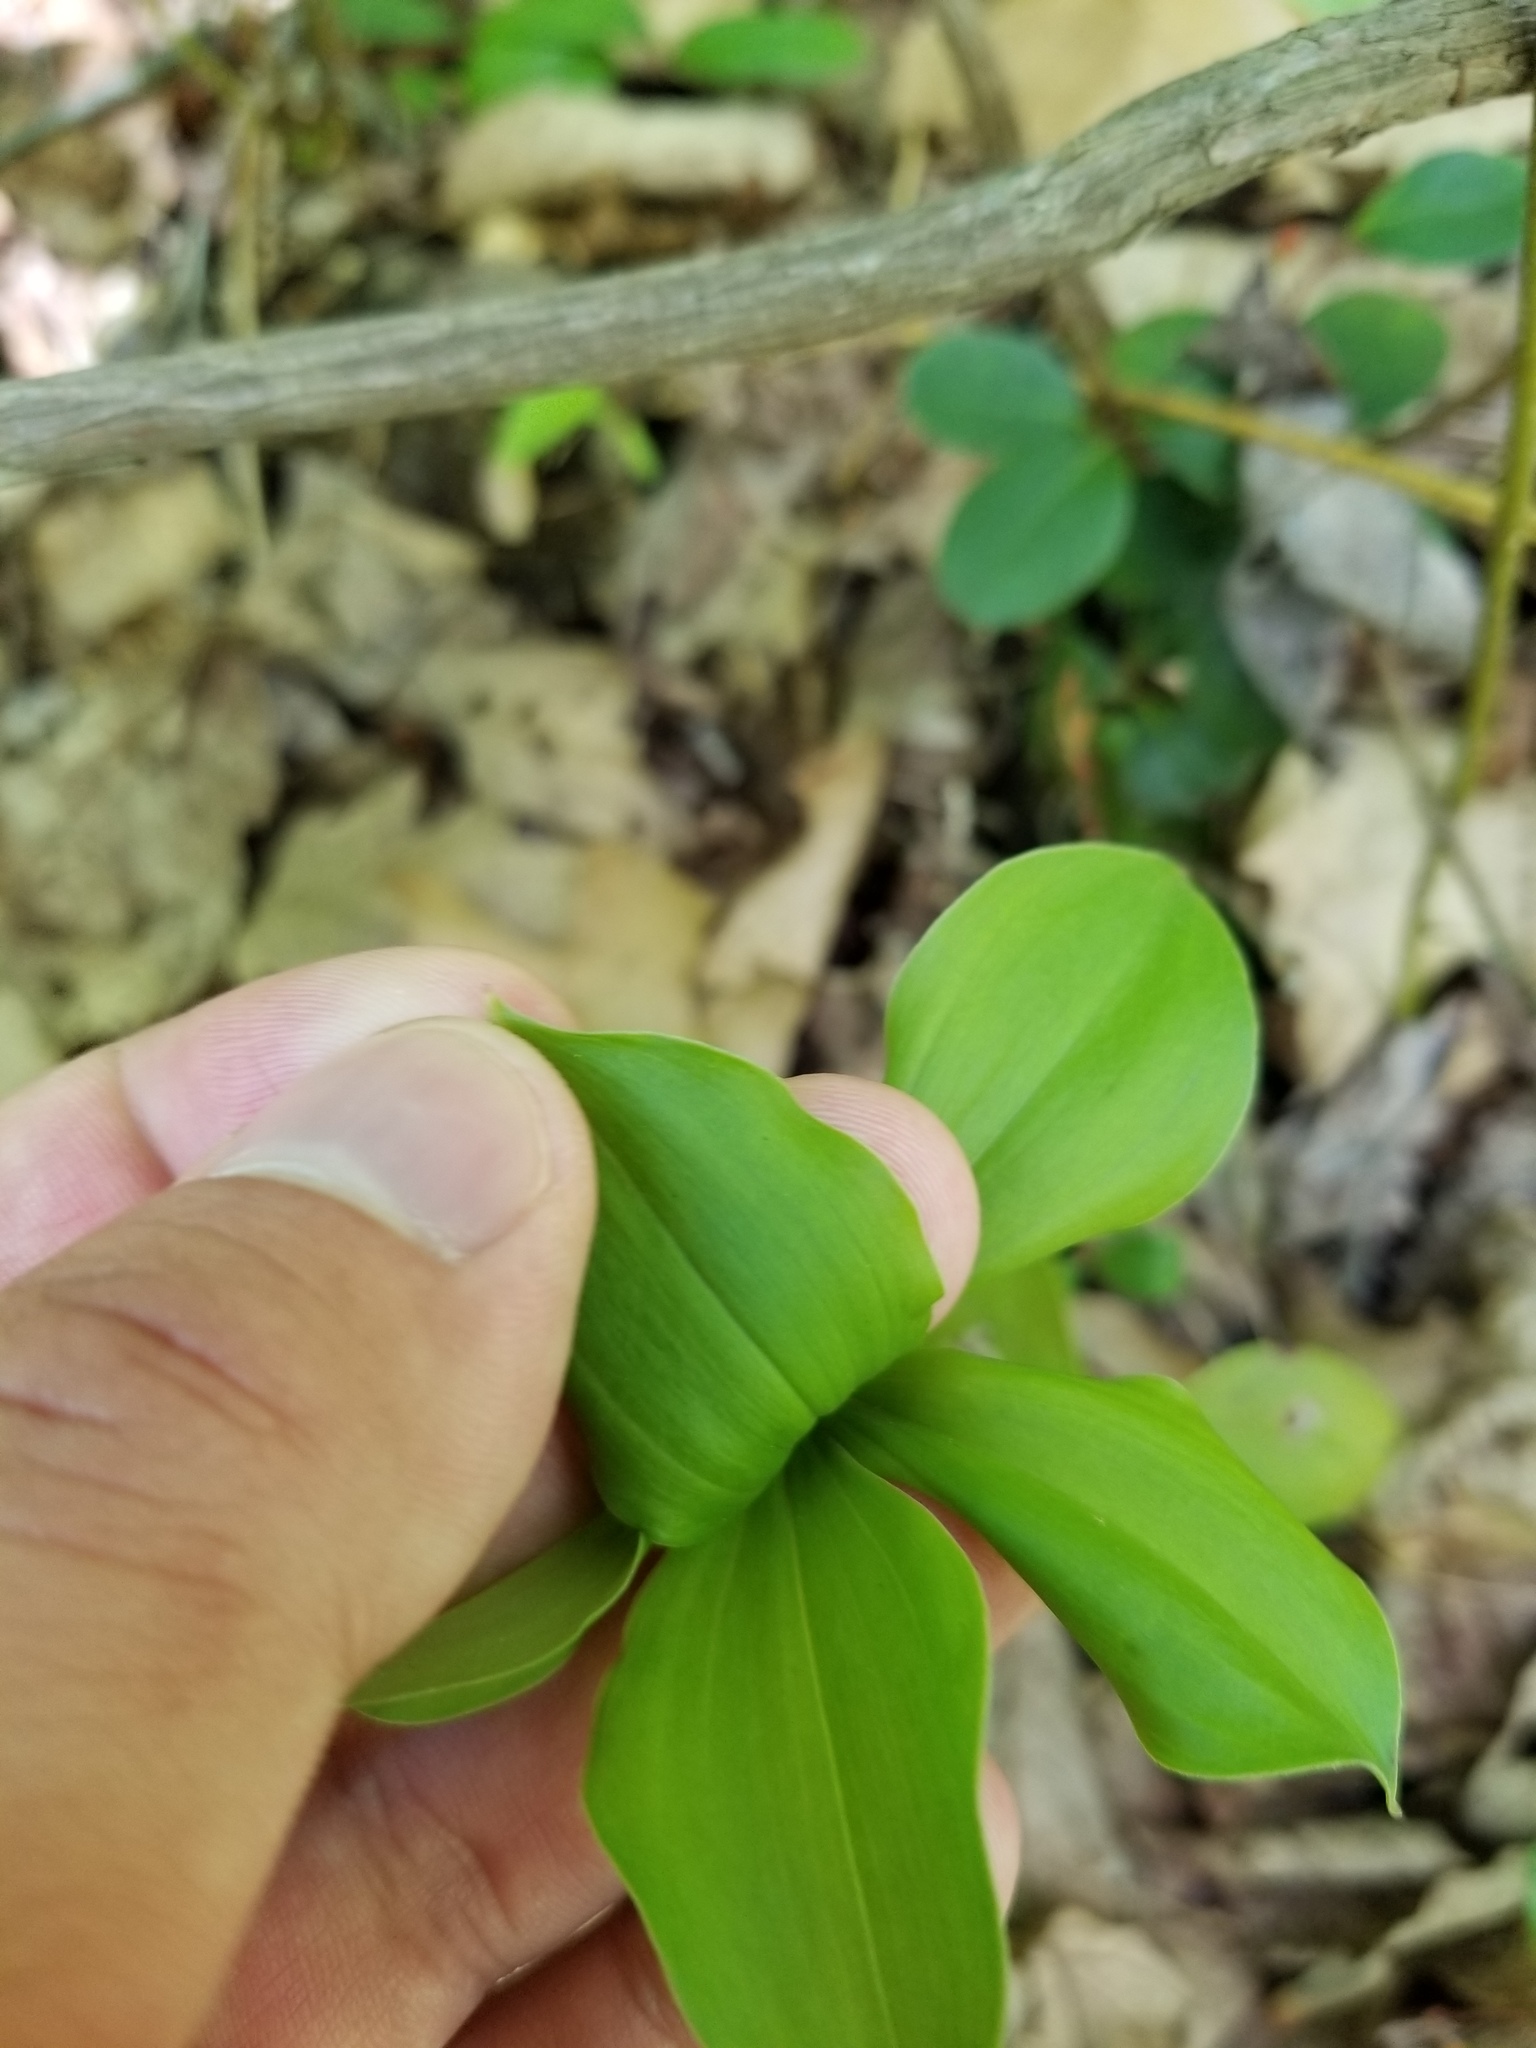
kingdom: Plantae
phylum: Tracheophyta
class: Liliopsida
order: Asparagales
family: Orchidaceae
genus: Isotria
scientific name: Isotria verticillata
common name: Large whorled pogonia
